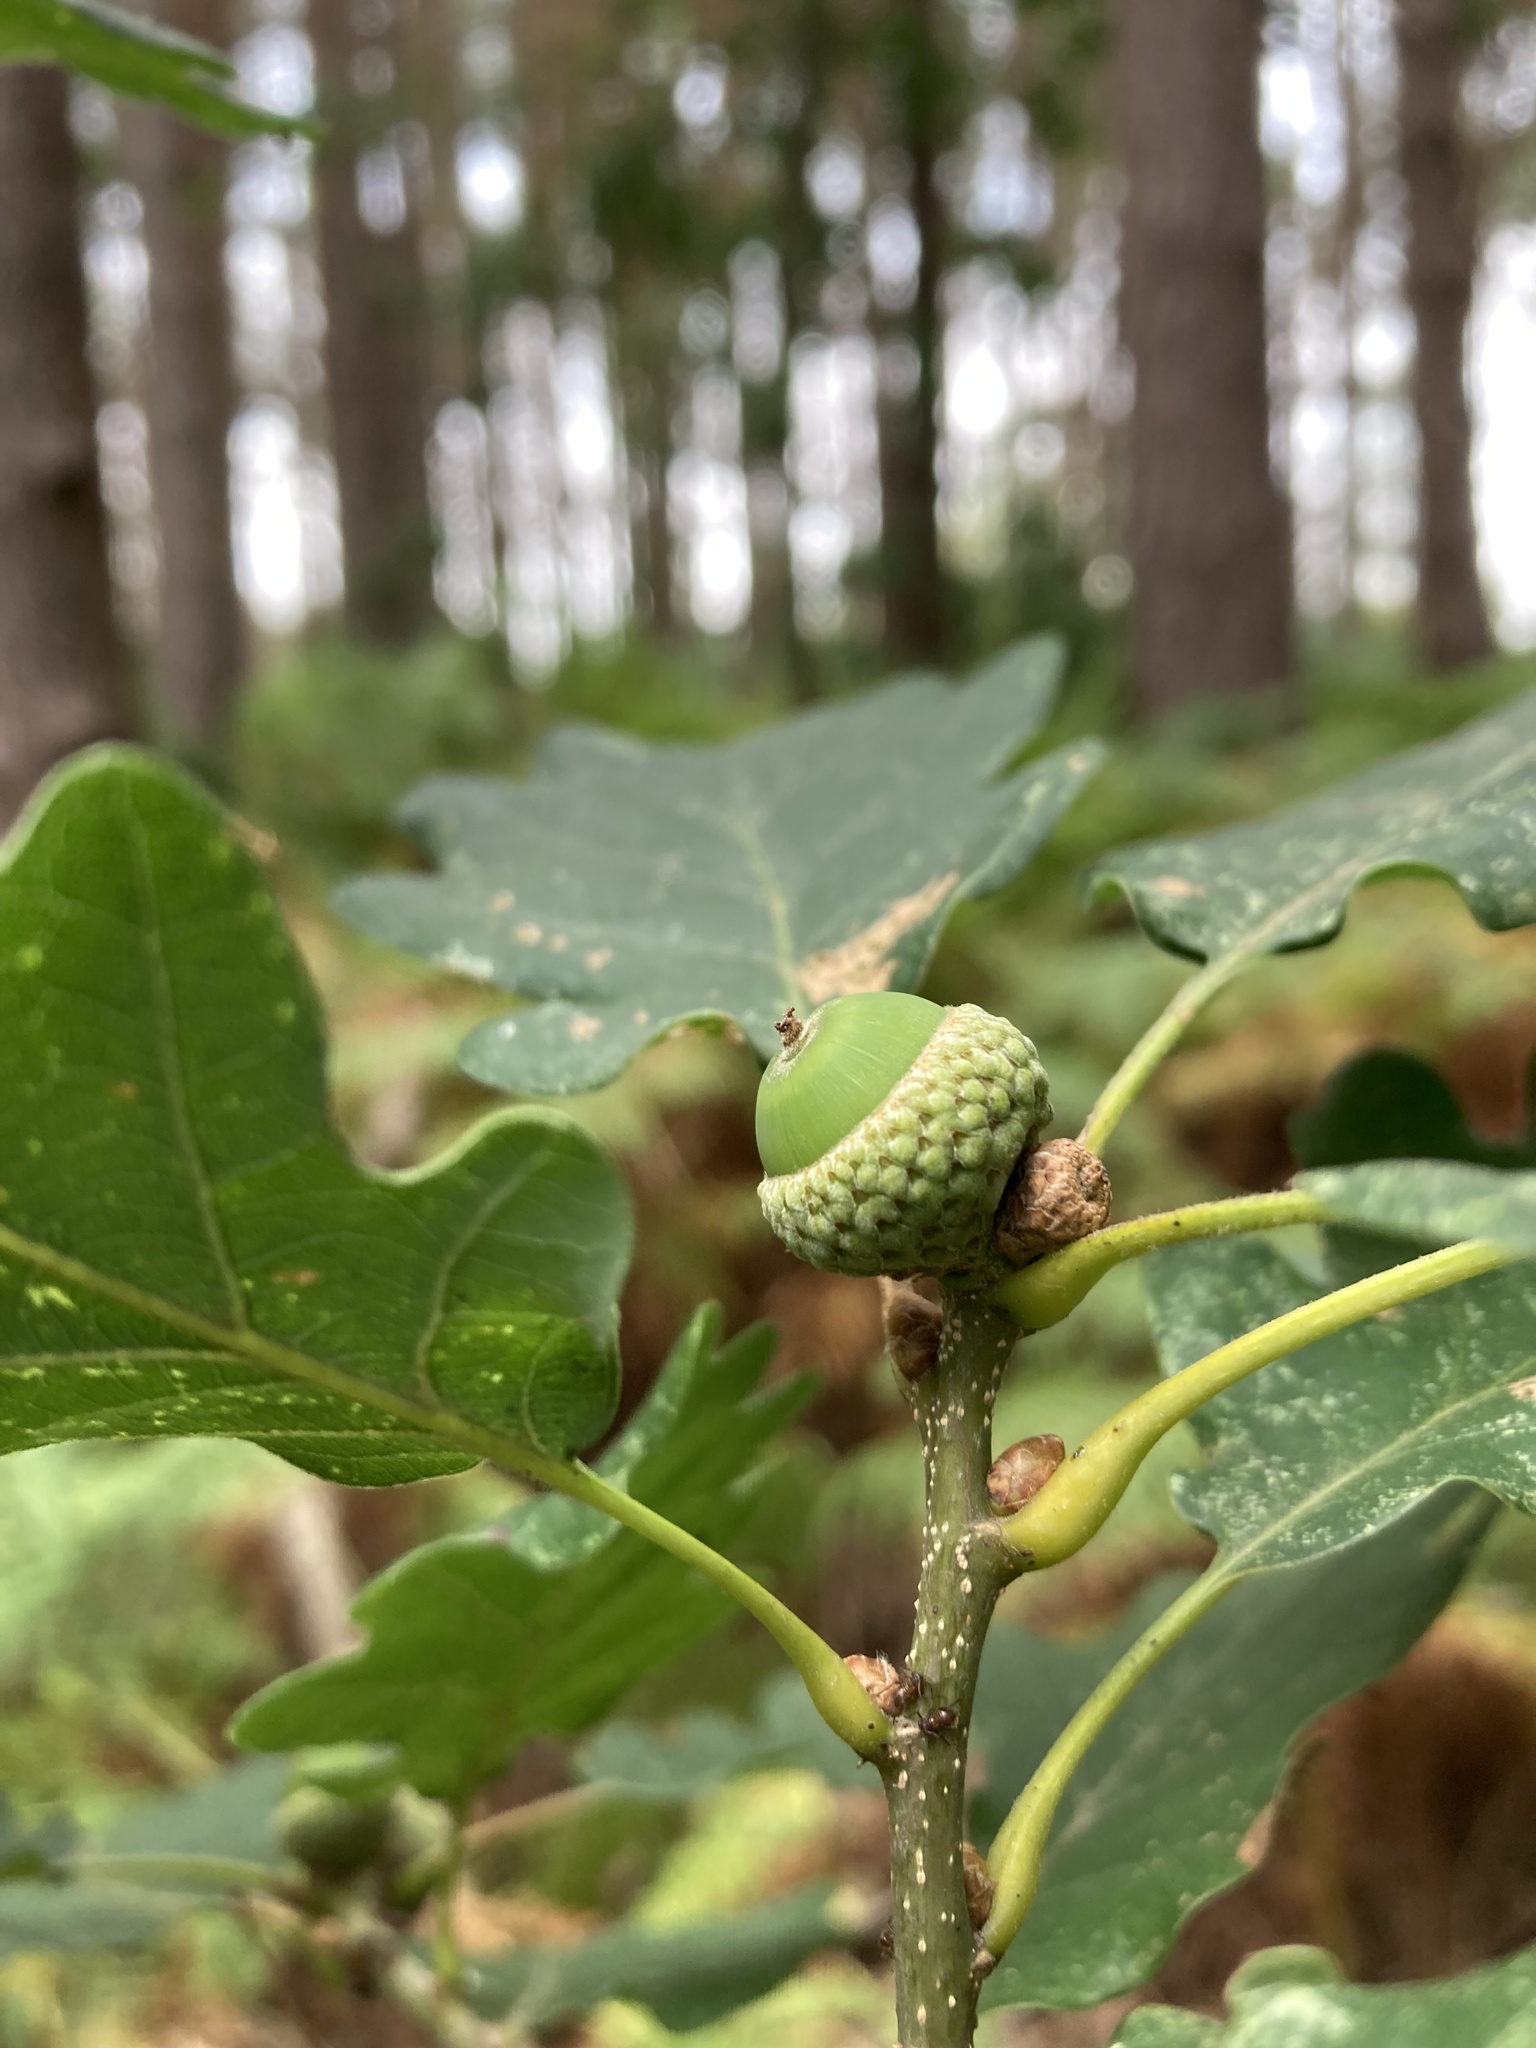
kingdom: Plantae
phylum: Tracheophyta
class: Magnoliopsida
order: Fagales
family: Fagaceae
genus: Quercus
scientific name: Quercus petraea
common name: Sessile oak
